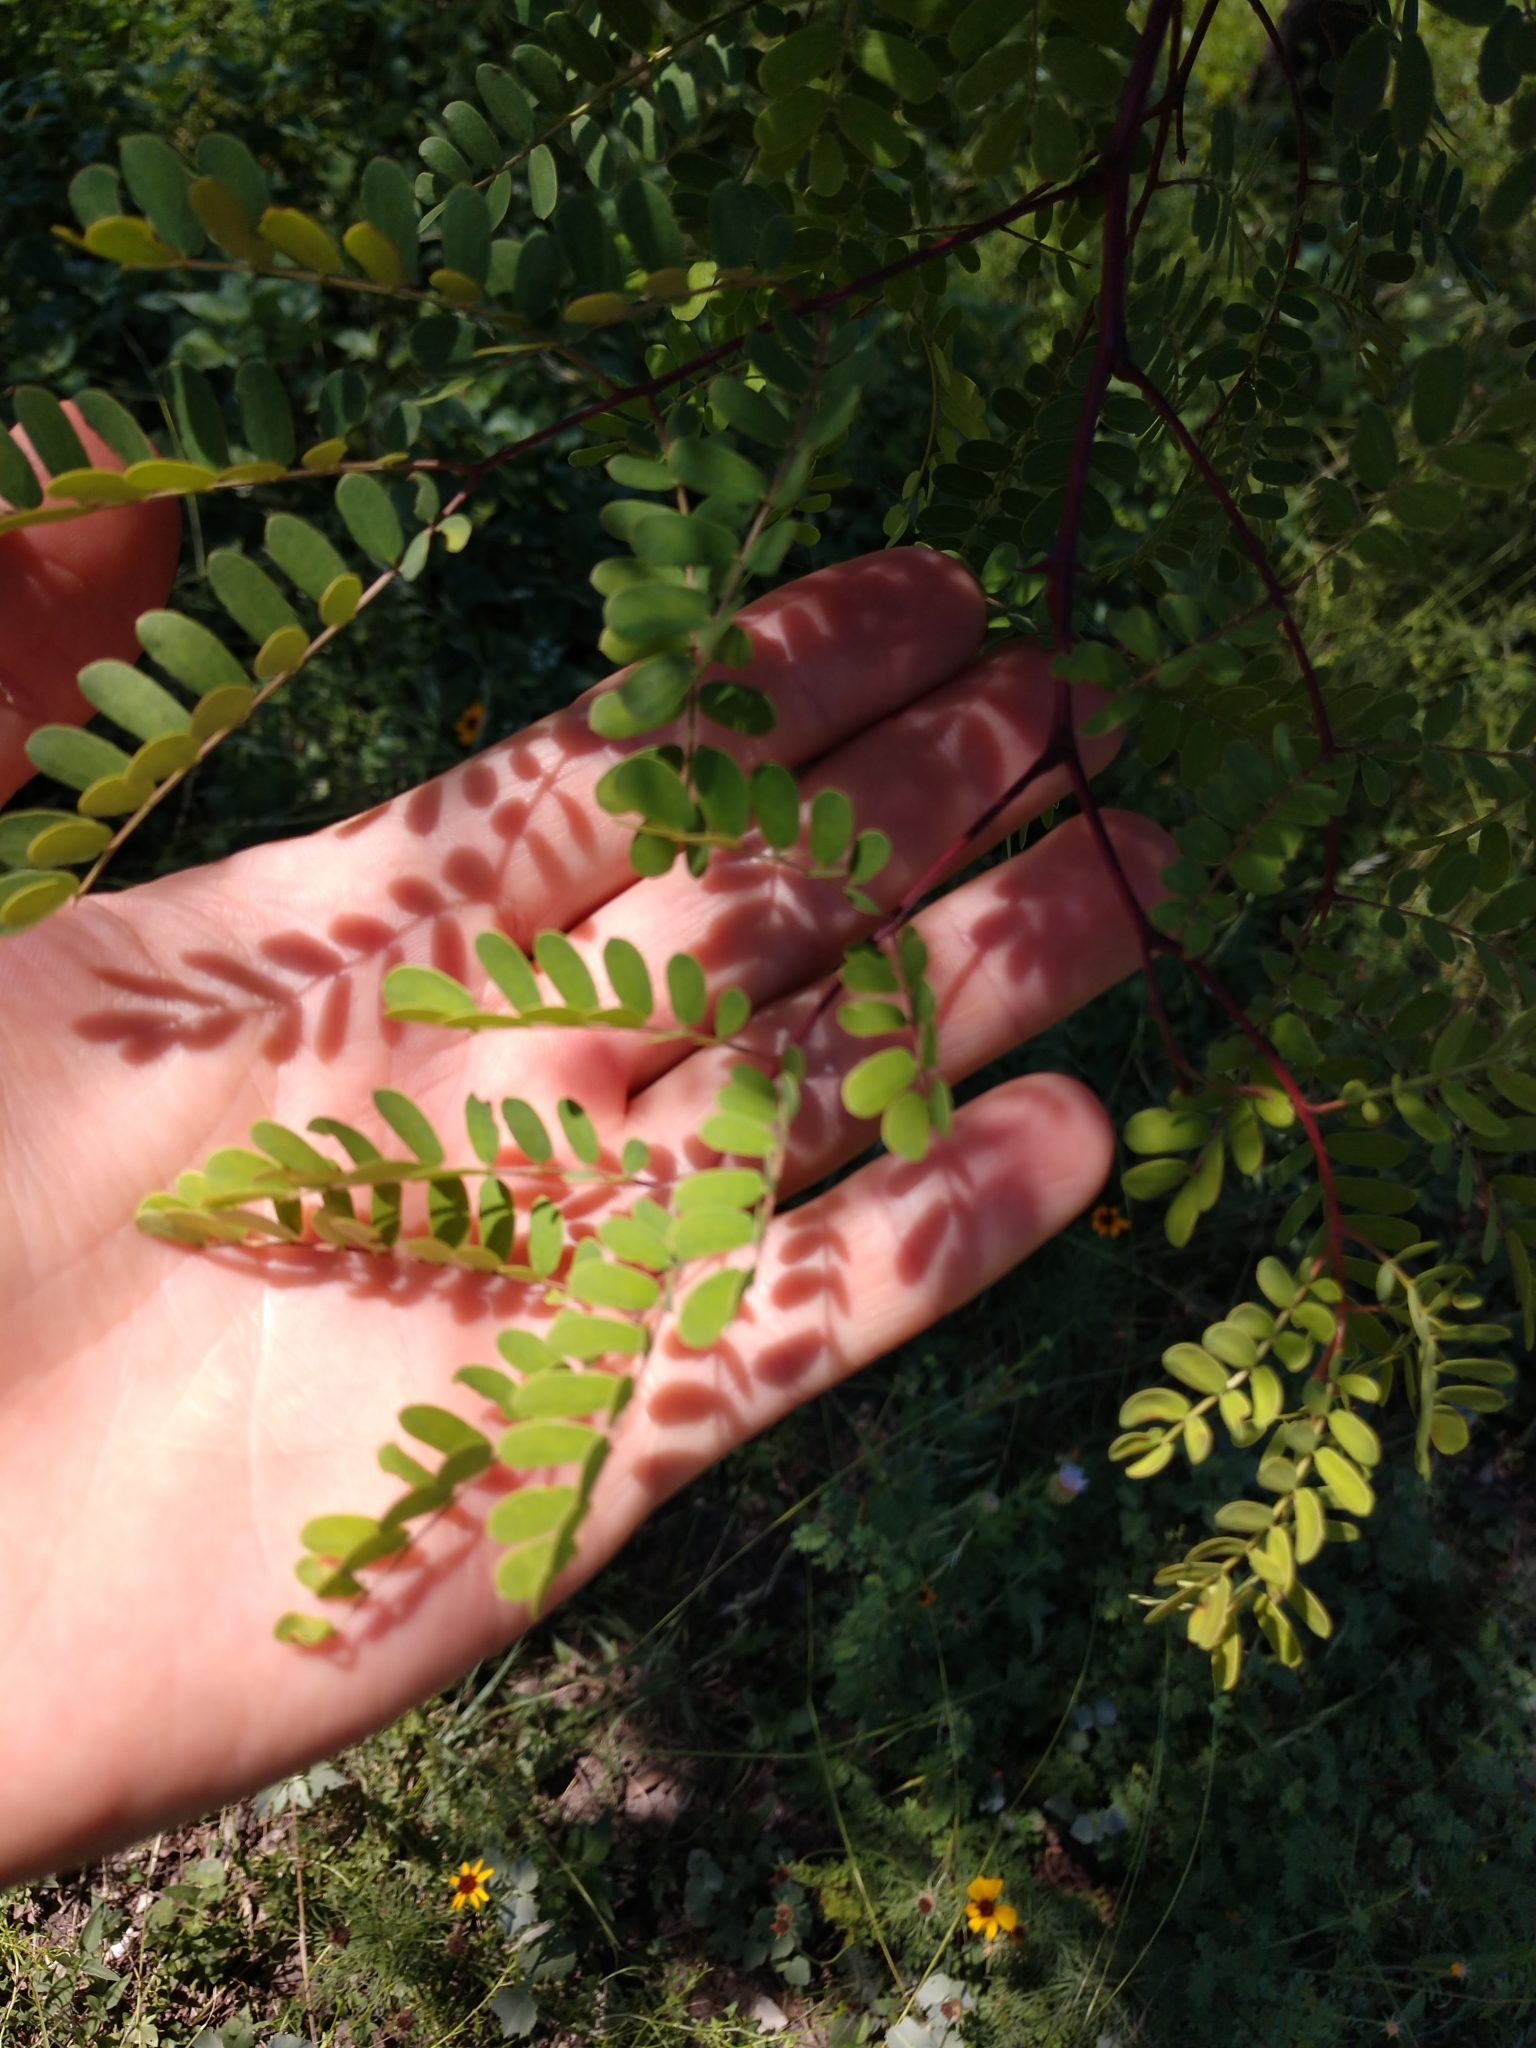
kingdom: Plantae
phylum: Tracheophyta
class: Magnoliopsida
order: Fabales
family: Fabaceae
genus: Senegalia
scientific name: Senegalia roemeriana
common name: Roemer's acacia
